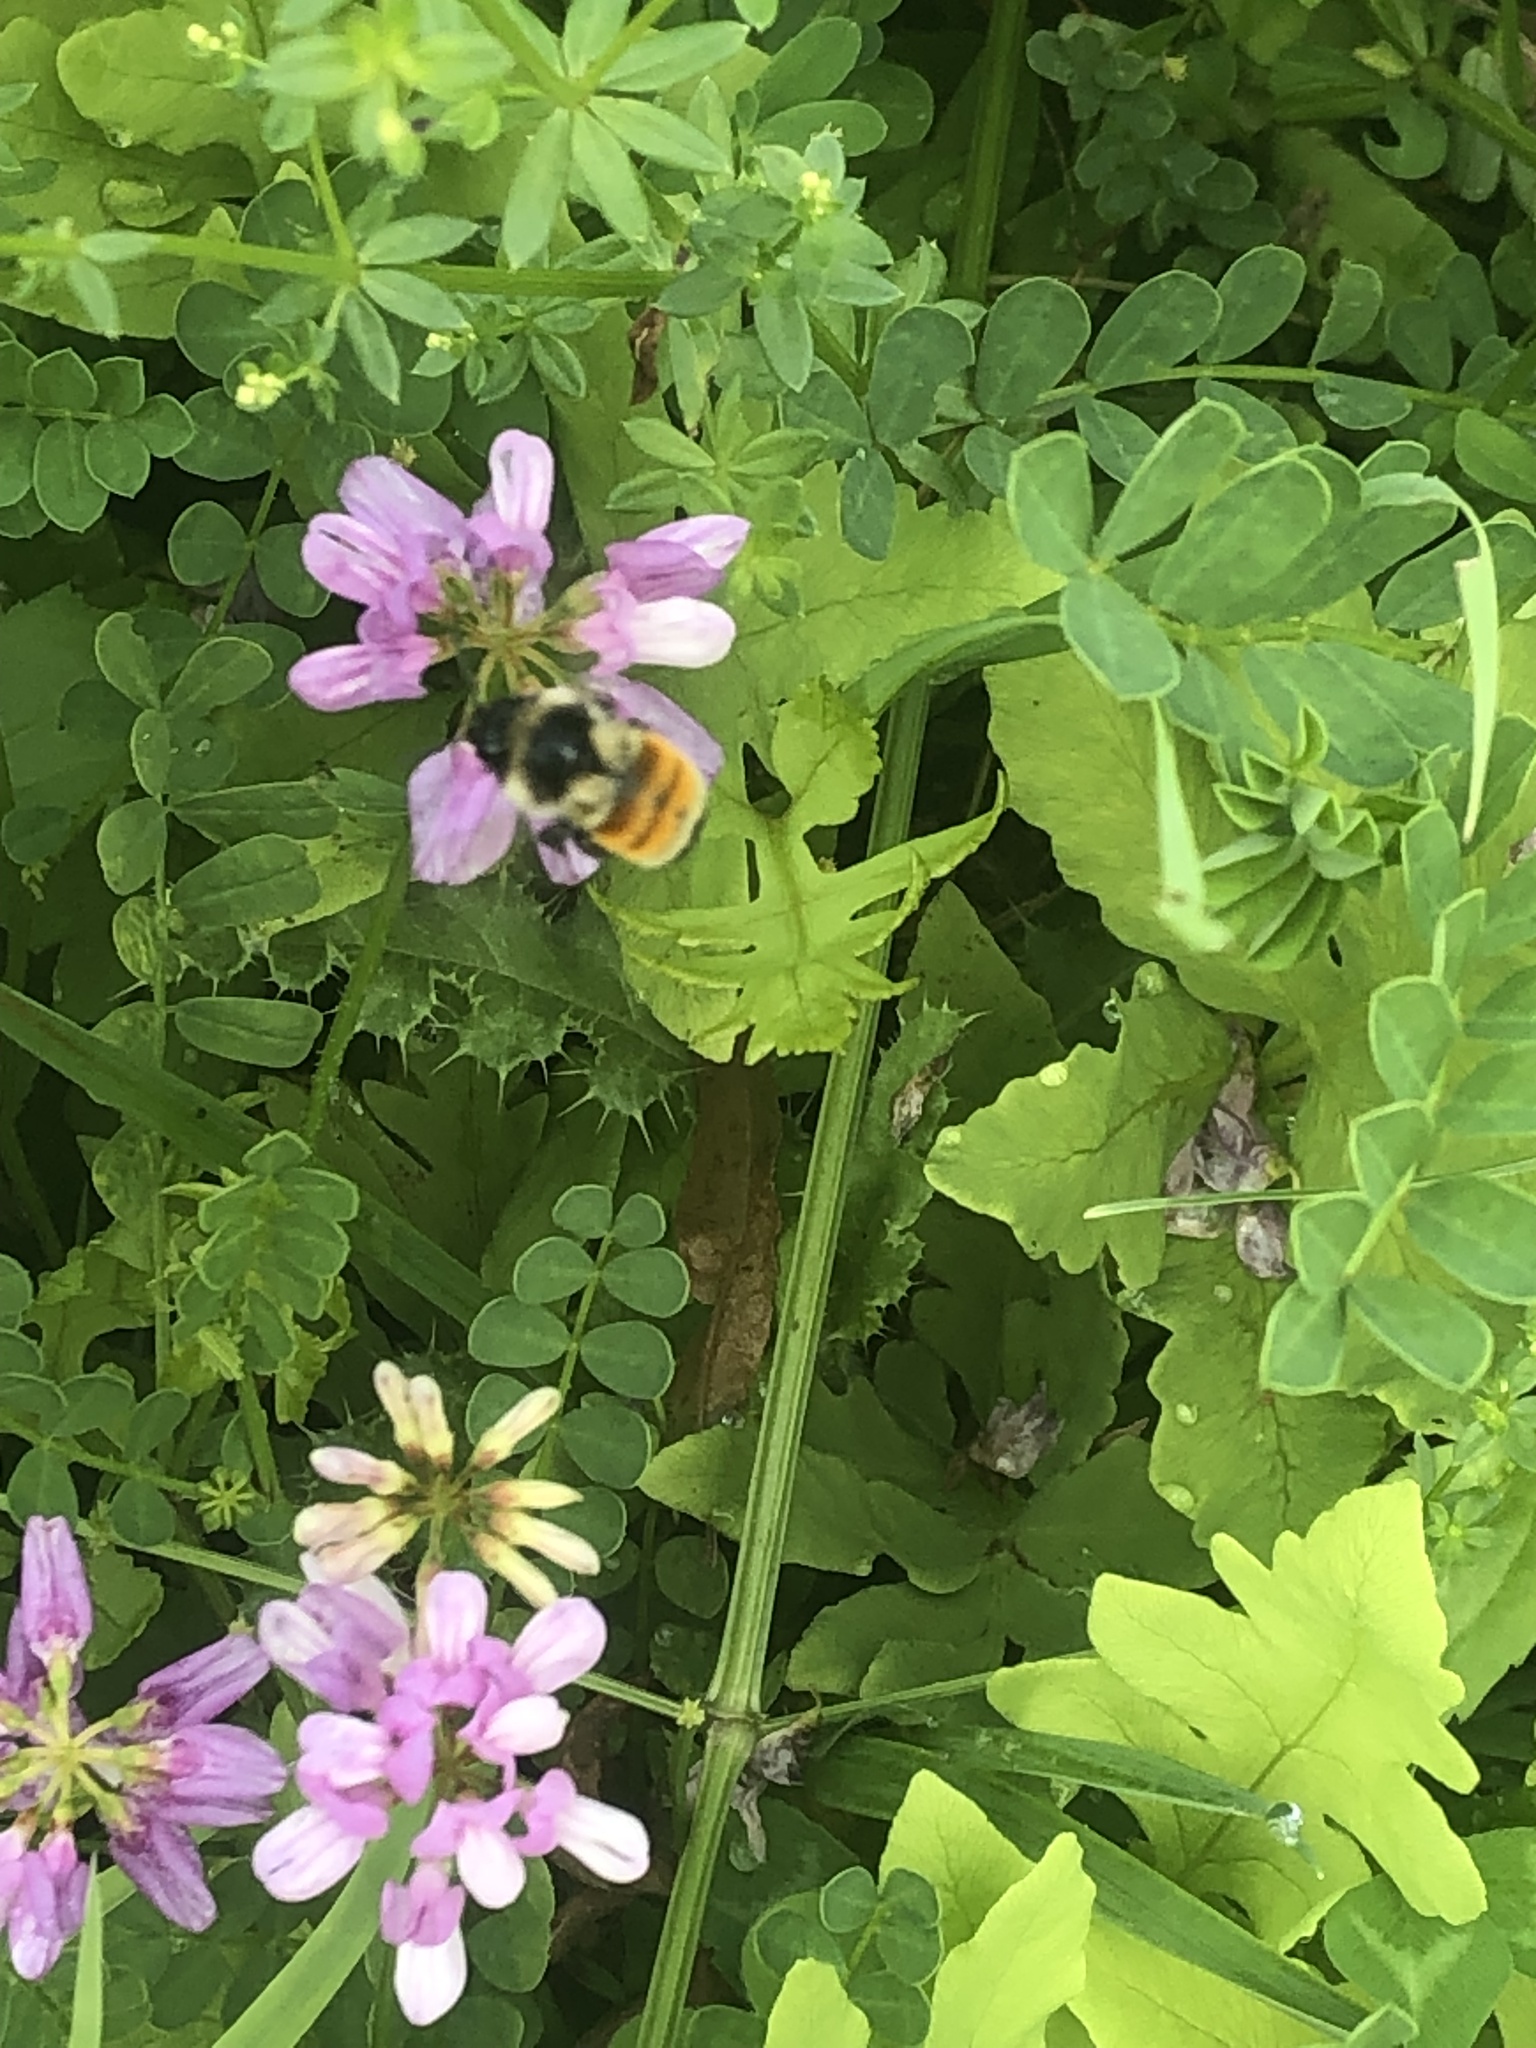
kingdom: Animalia
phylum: Arthropoda
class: Insecta
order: Hymenoptera
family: Apidae
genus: Bombus
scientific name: Bombus ternarius
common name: Tri-colored bumble bee
